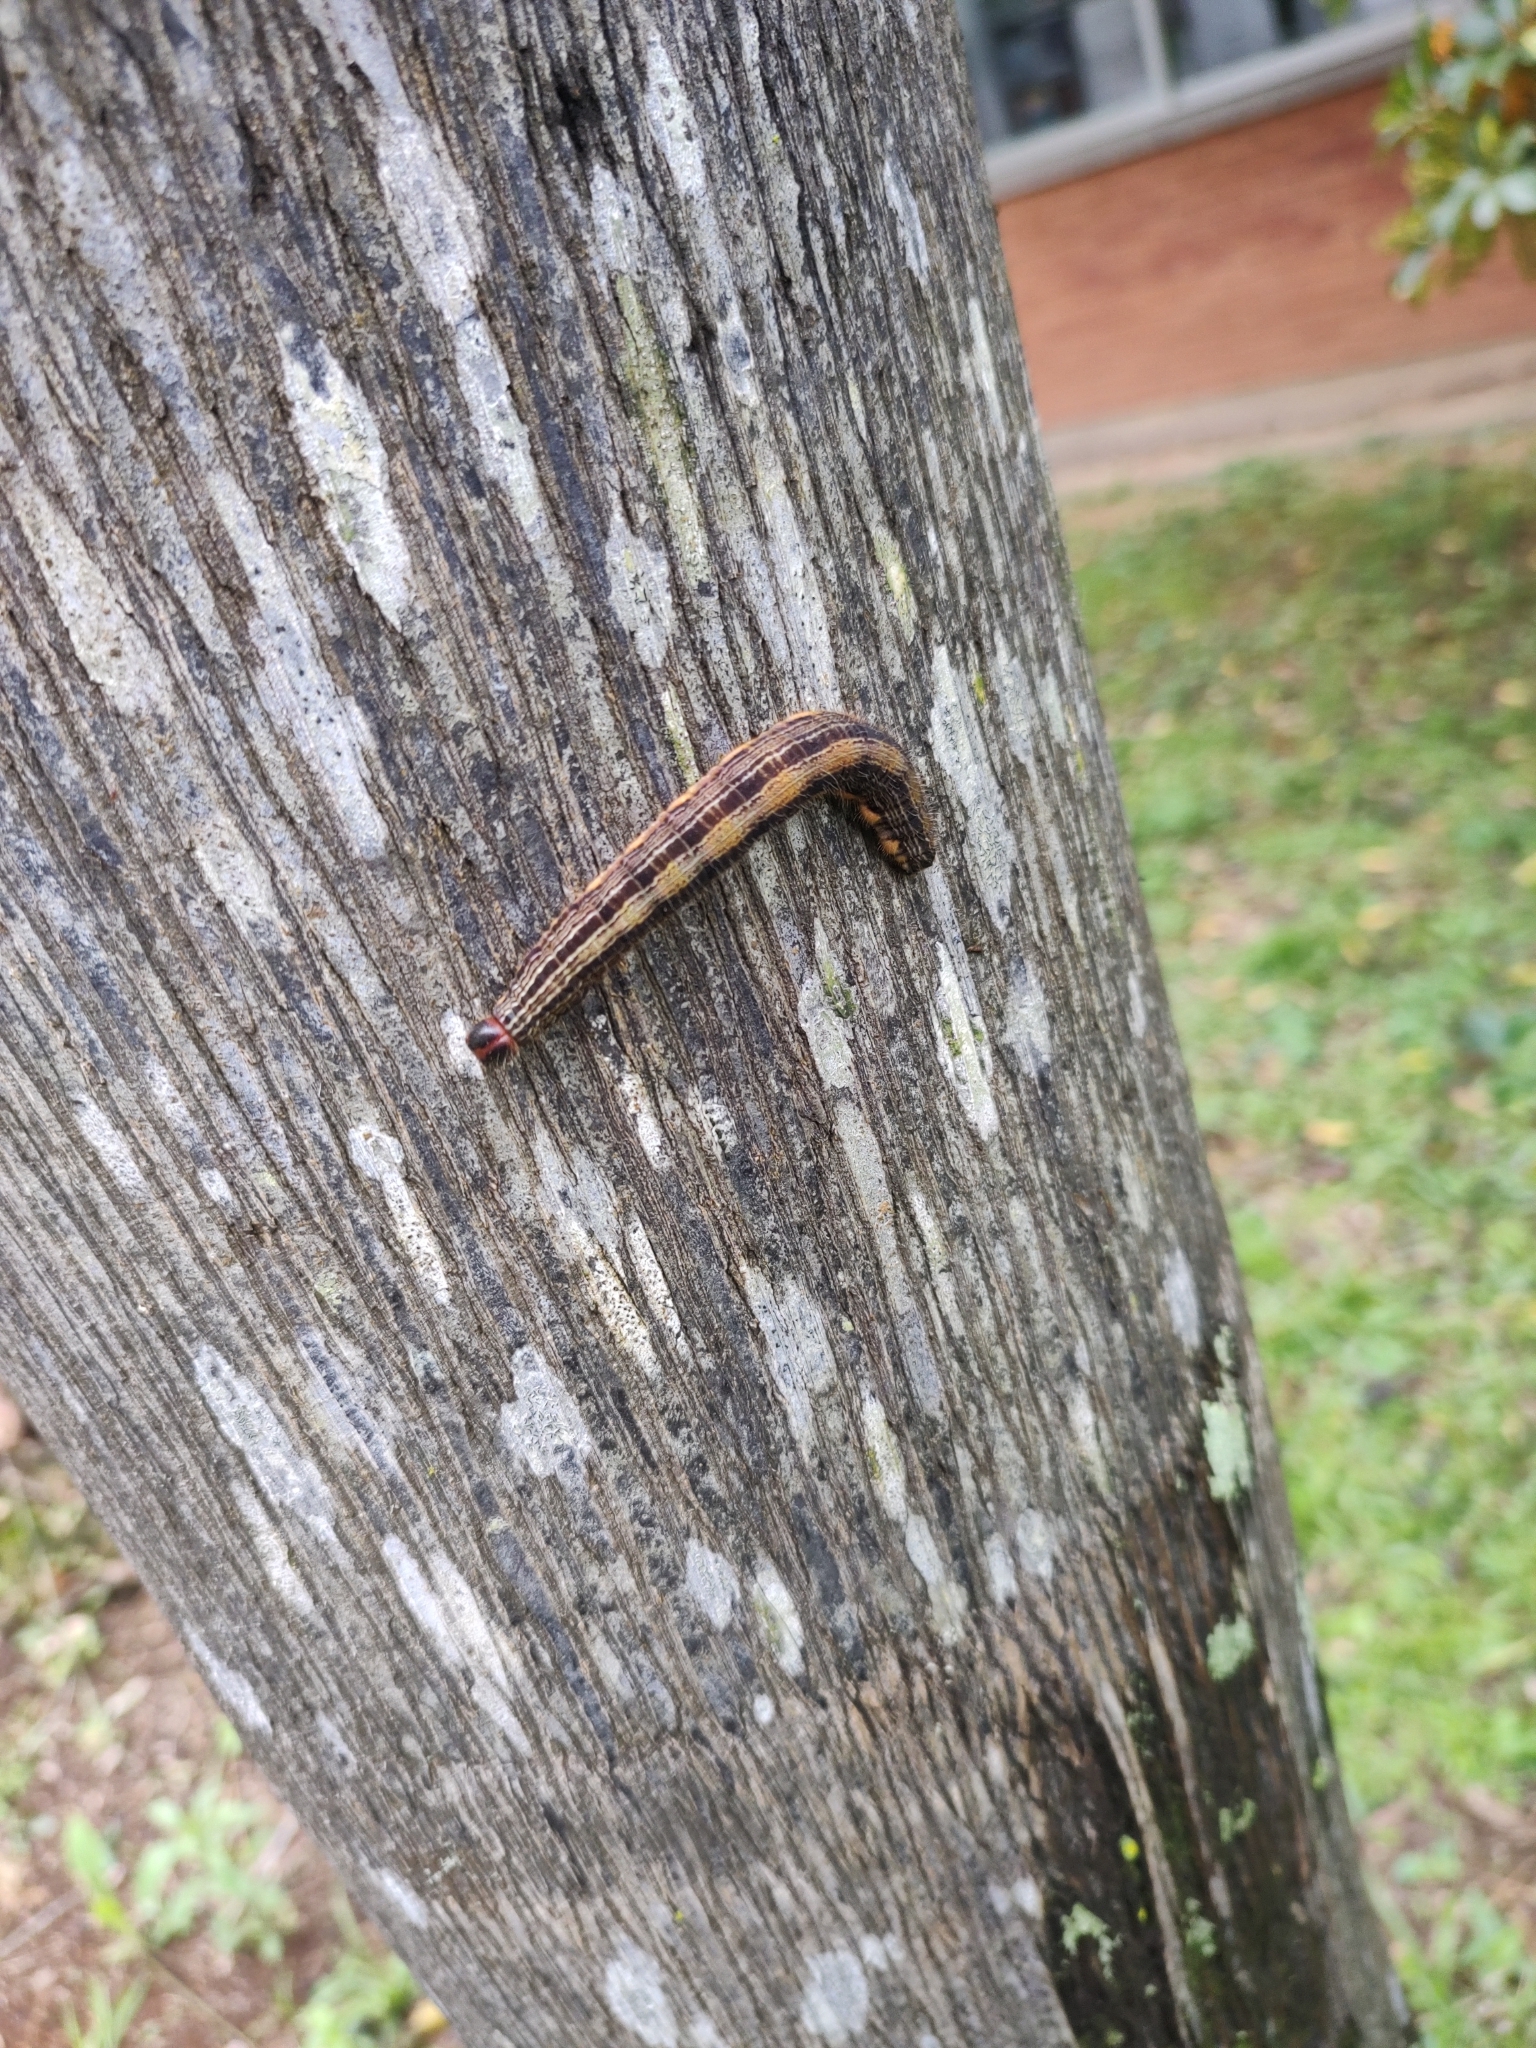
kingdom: Animalia
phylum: Arthropoda
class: Insecta
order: Lepidoptera
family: Nymphalidae
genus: Brassolis
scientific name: Brassolis sophorae
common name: Coconut caterpillar
